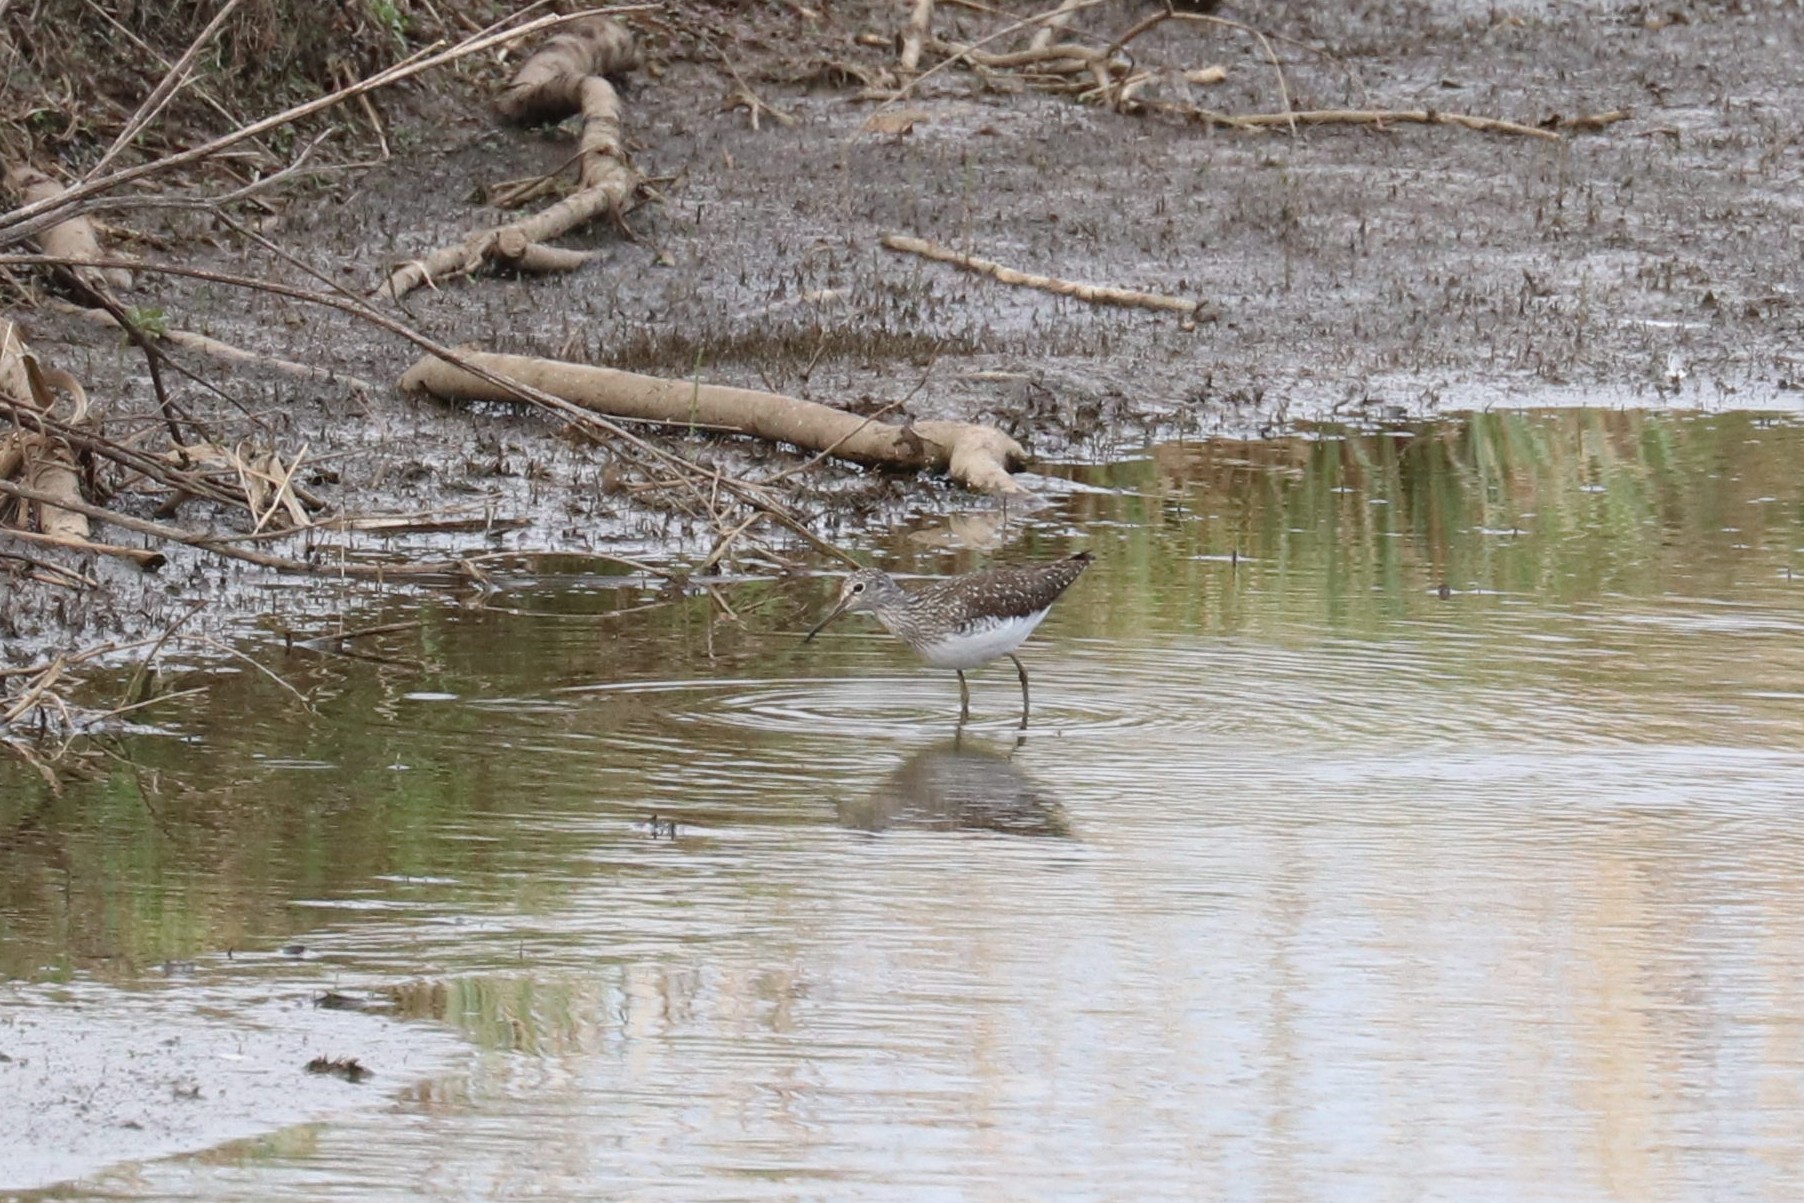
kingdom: Animalia
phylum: Chordata
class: Aves
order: Charadriiformes
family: Scolopacidae
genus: Tringa
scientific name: Tringa ochropus
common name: Green sandpiper
